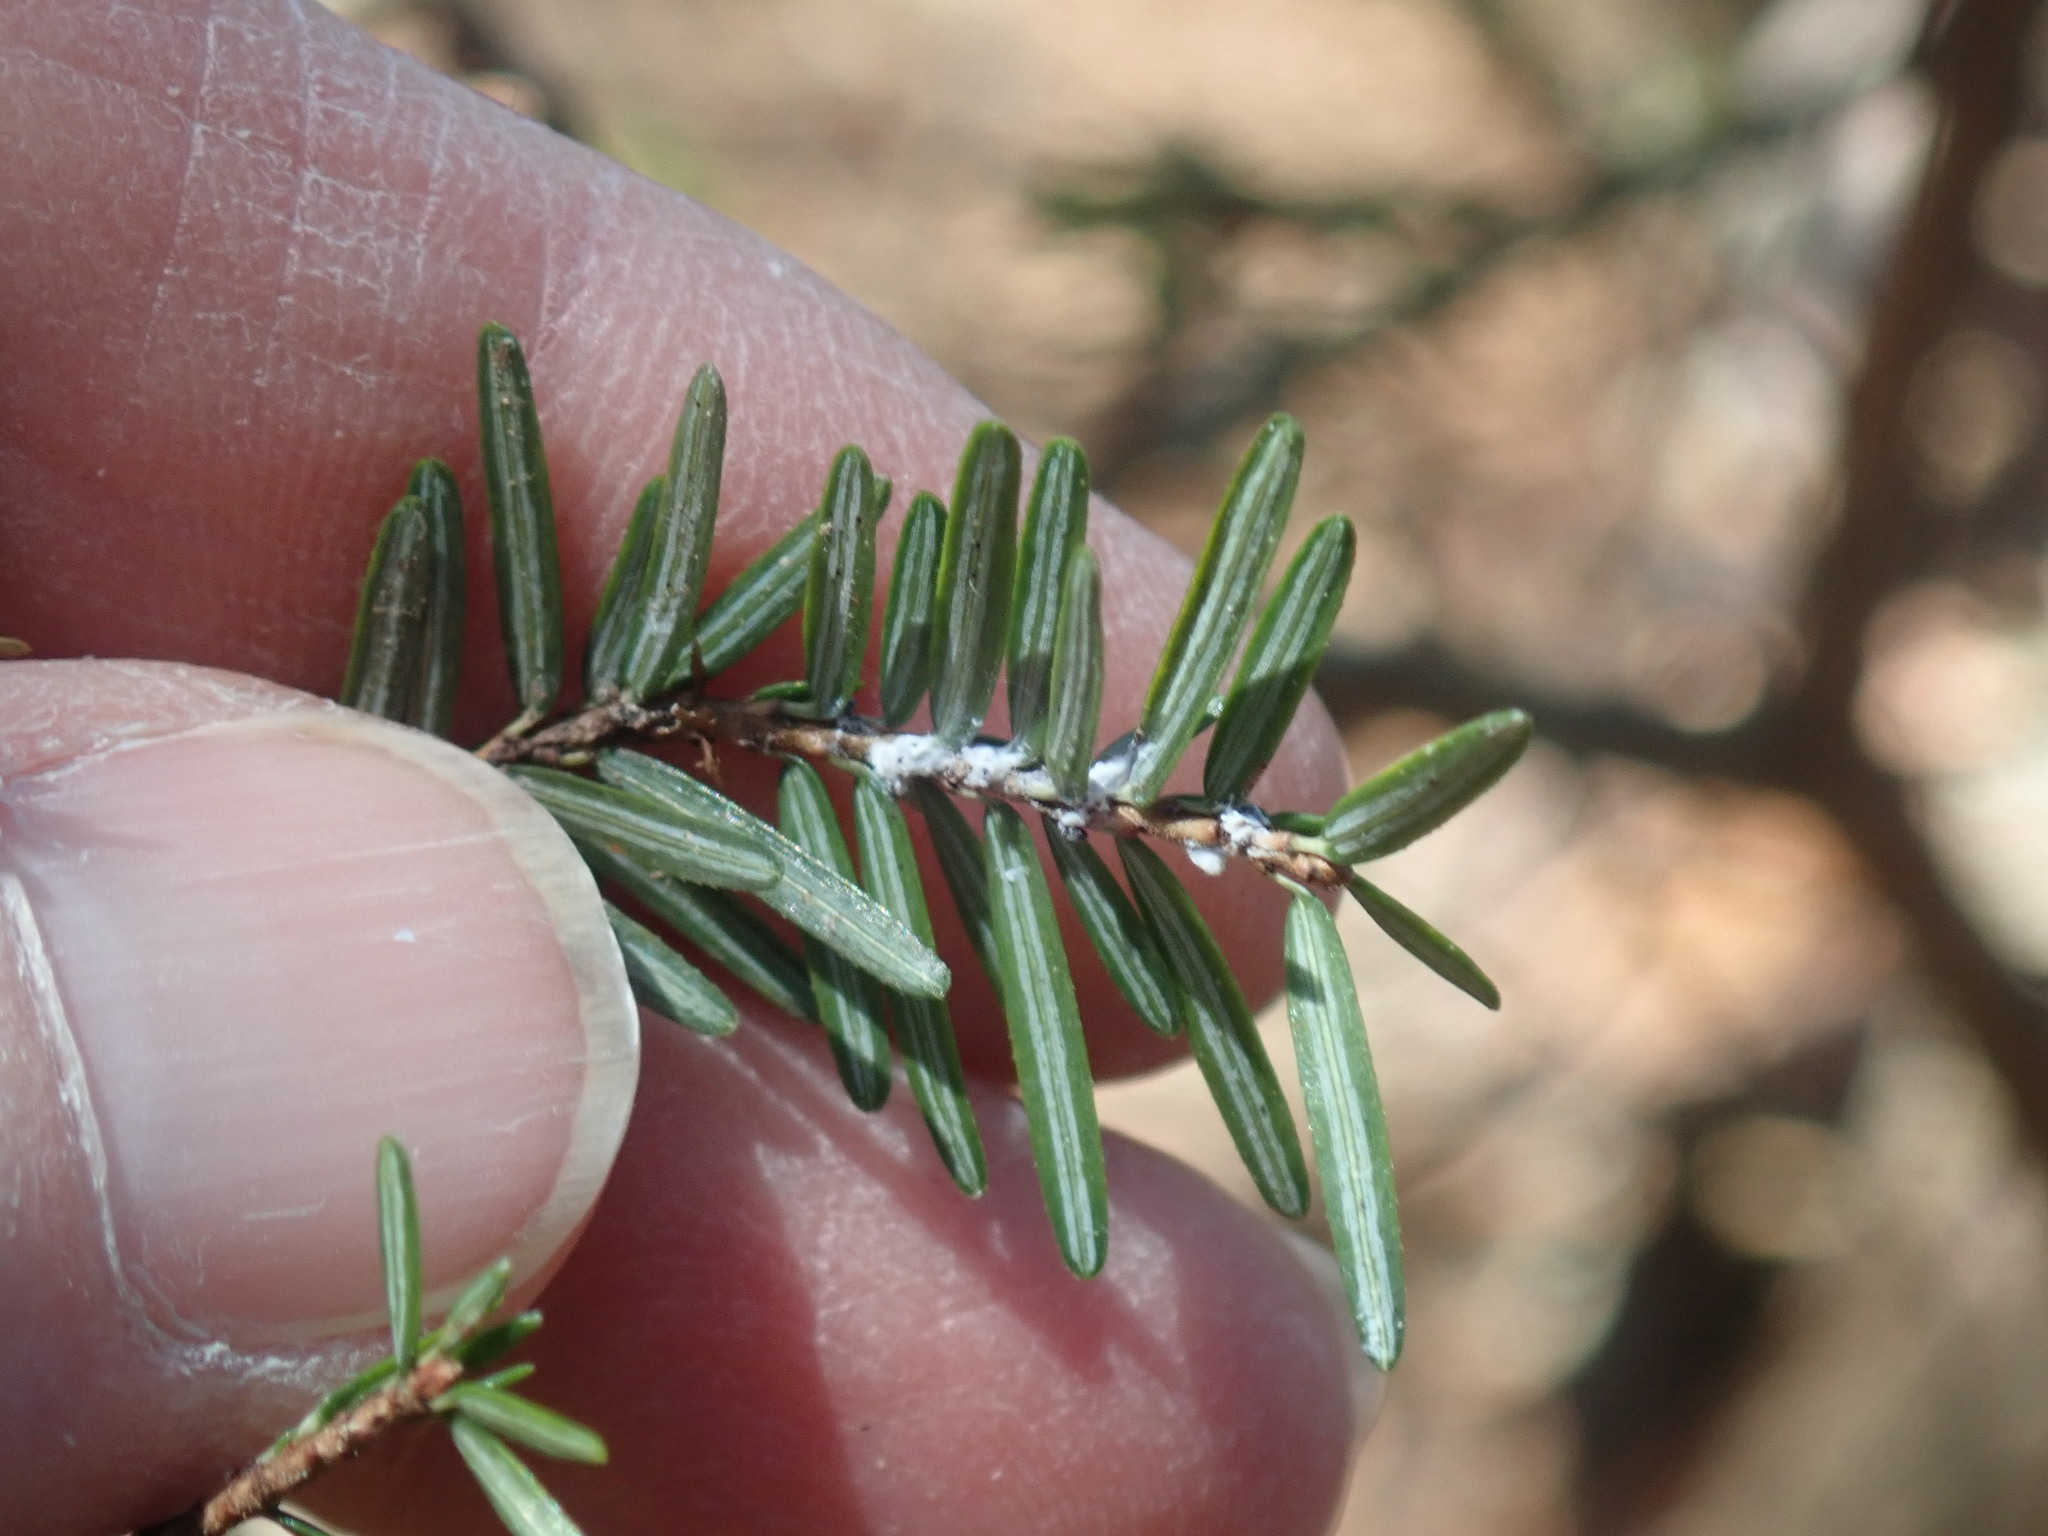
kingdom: Animalia
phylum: Arthropoda
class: Insecta
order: Hemiptera
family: Adelgidae
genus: Adelges
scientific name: Adelges tsugae
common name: Hemlock woolly adelgid
